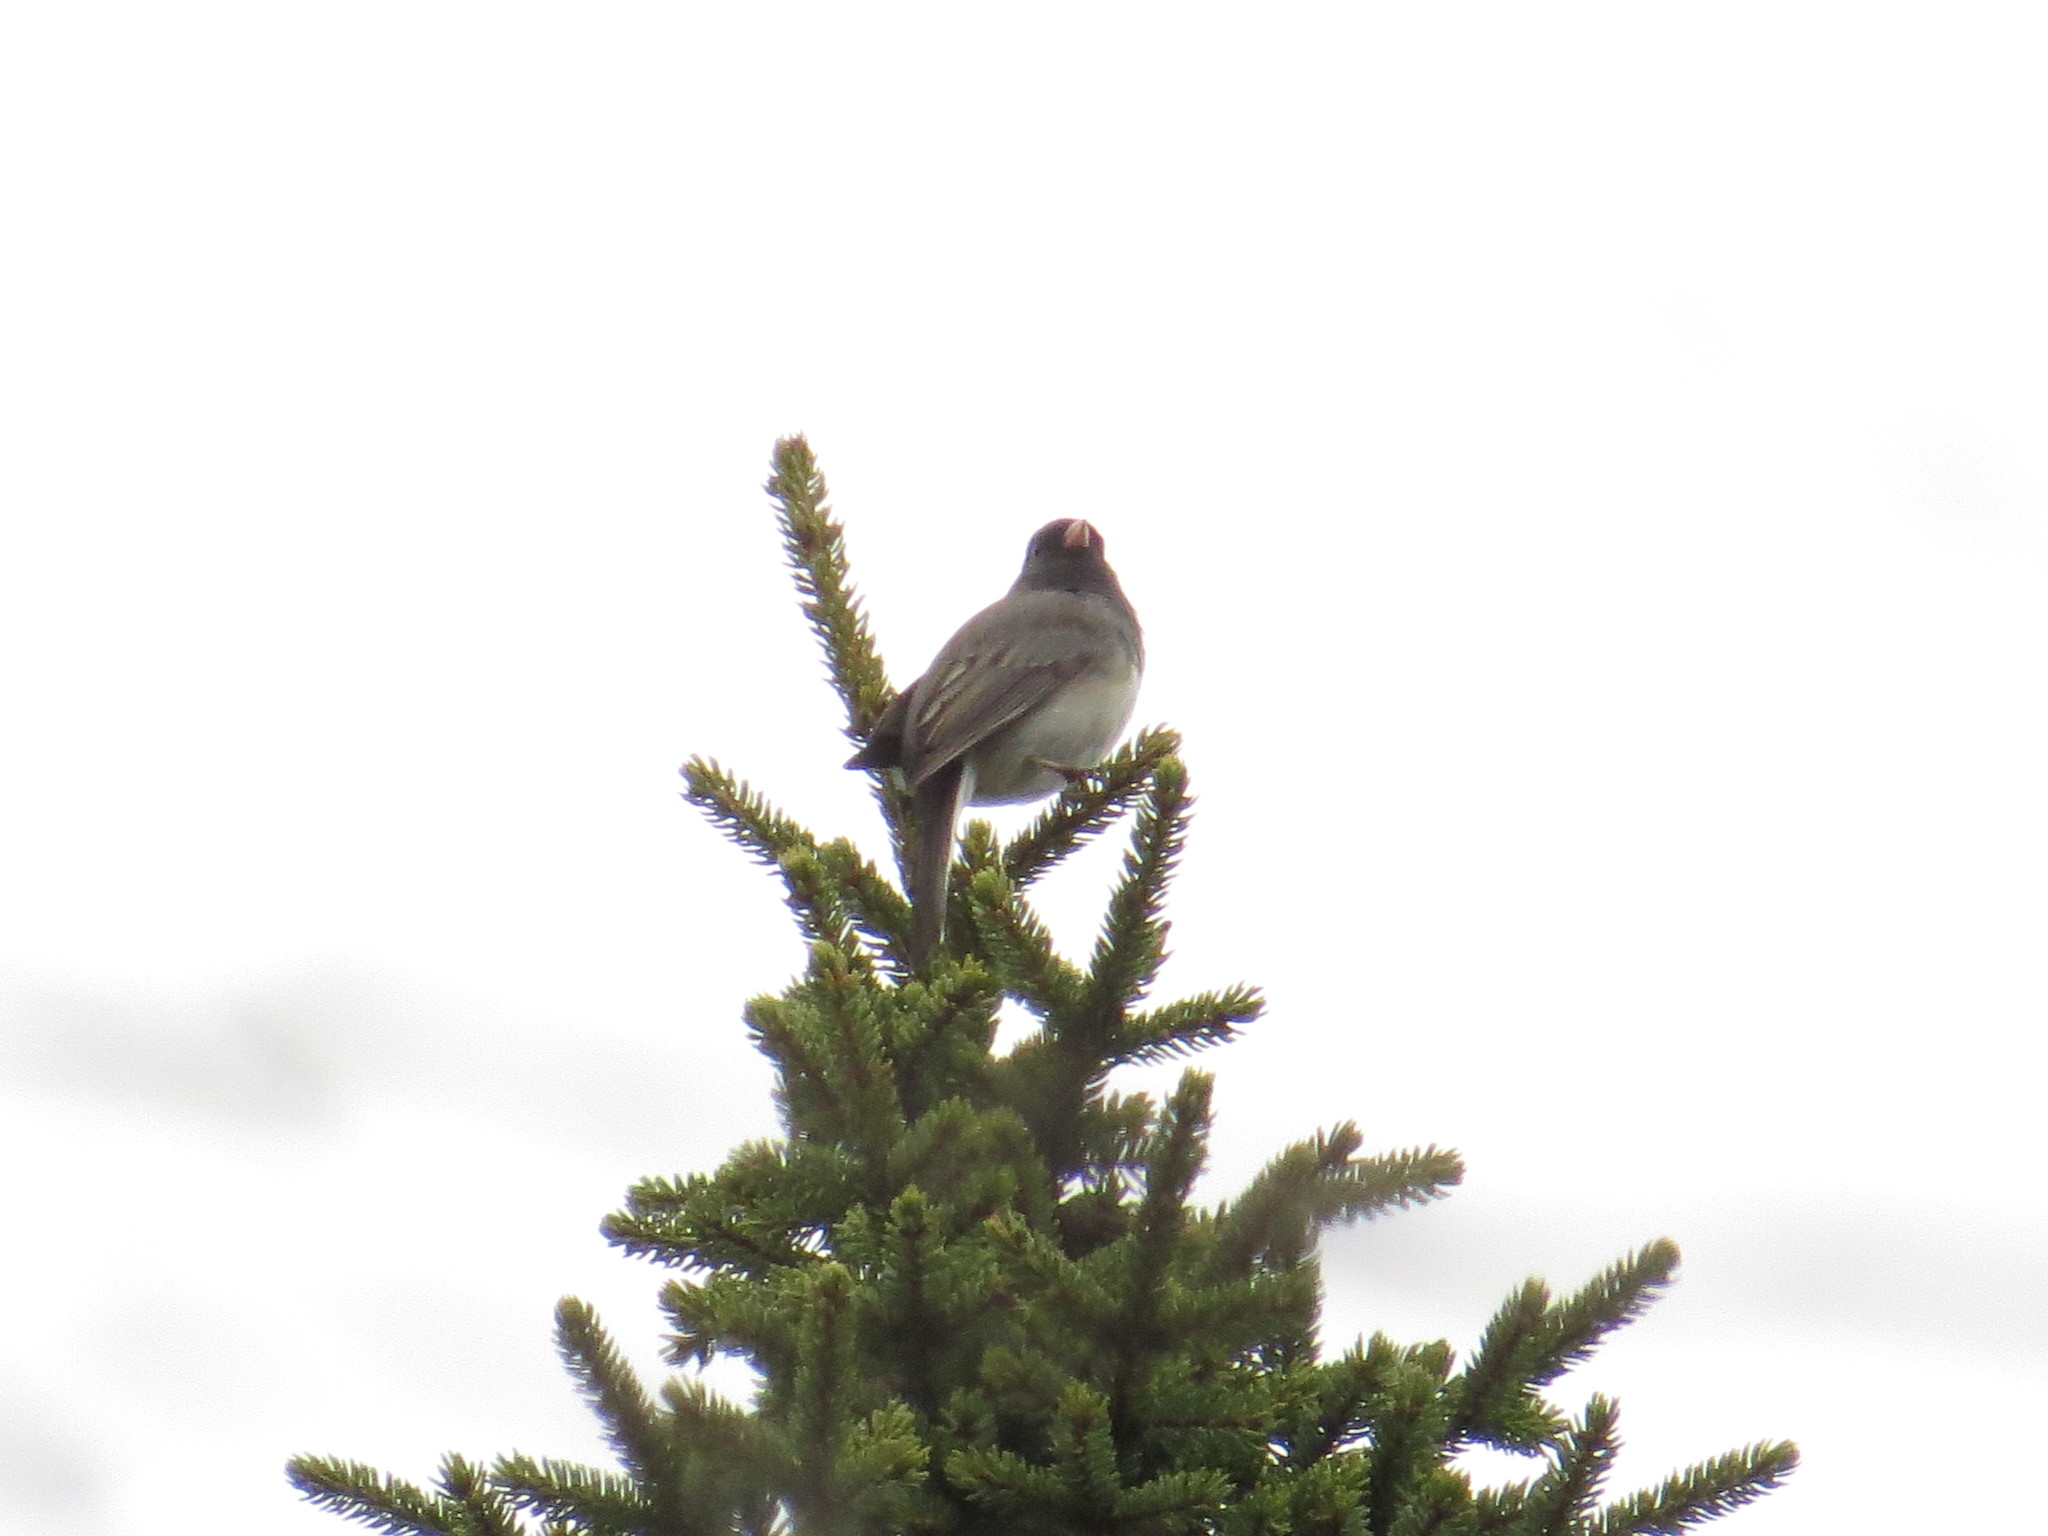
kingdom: Animalia
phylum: Chordata
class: Aves
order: Passeriformes
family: Passerellidae
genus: Junco
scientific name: Junco hyemalis
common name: Dark-eyed junco
